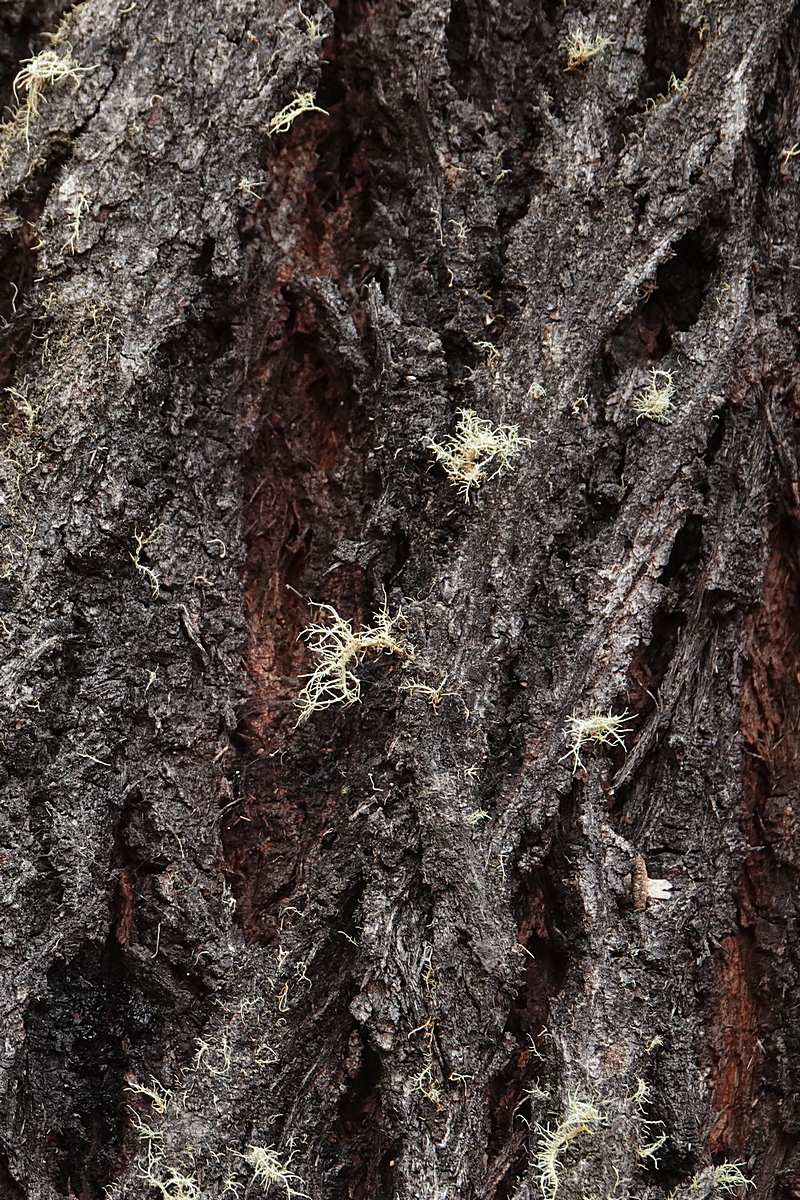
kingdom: Plantae
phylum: Tracheophyta
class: Magnoliopsida
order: Myrtales
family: Myrtaceae
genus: Eucalyptus
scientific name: Eucalyptus fraxinoides
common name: White-ash
